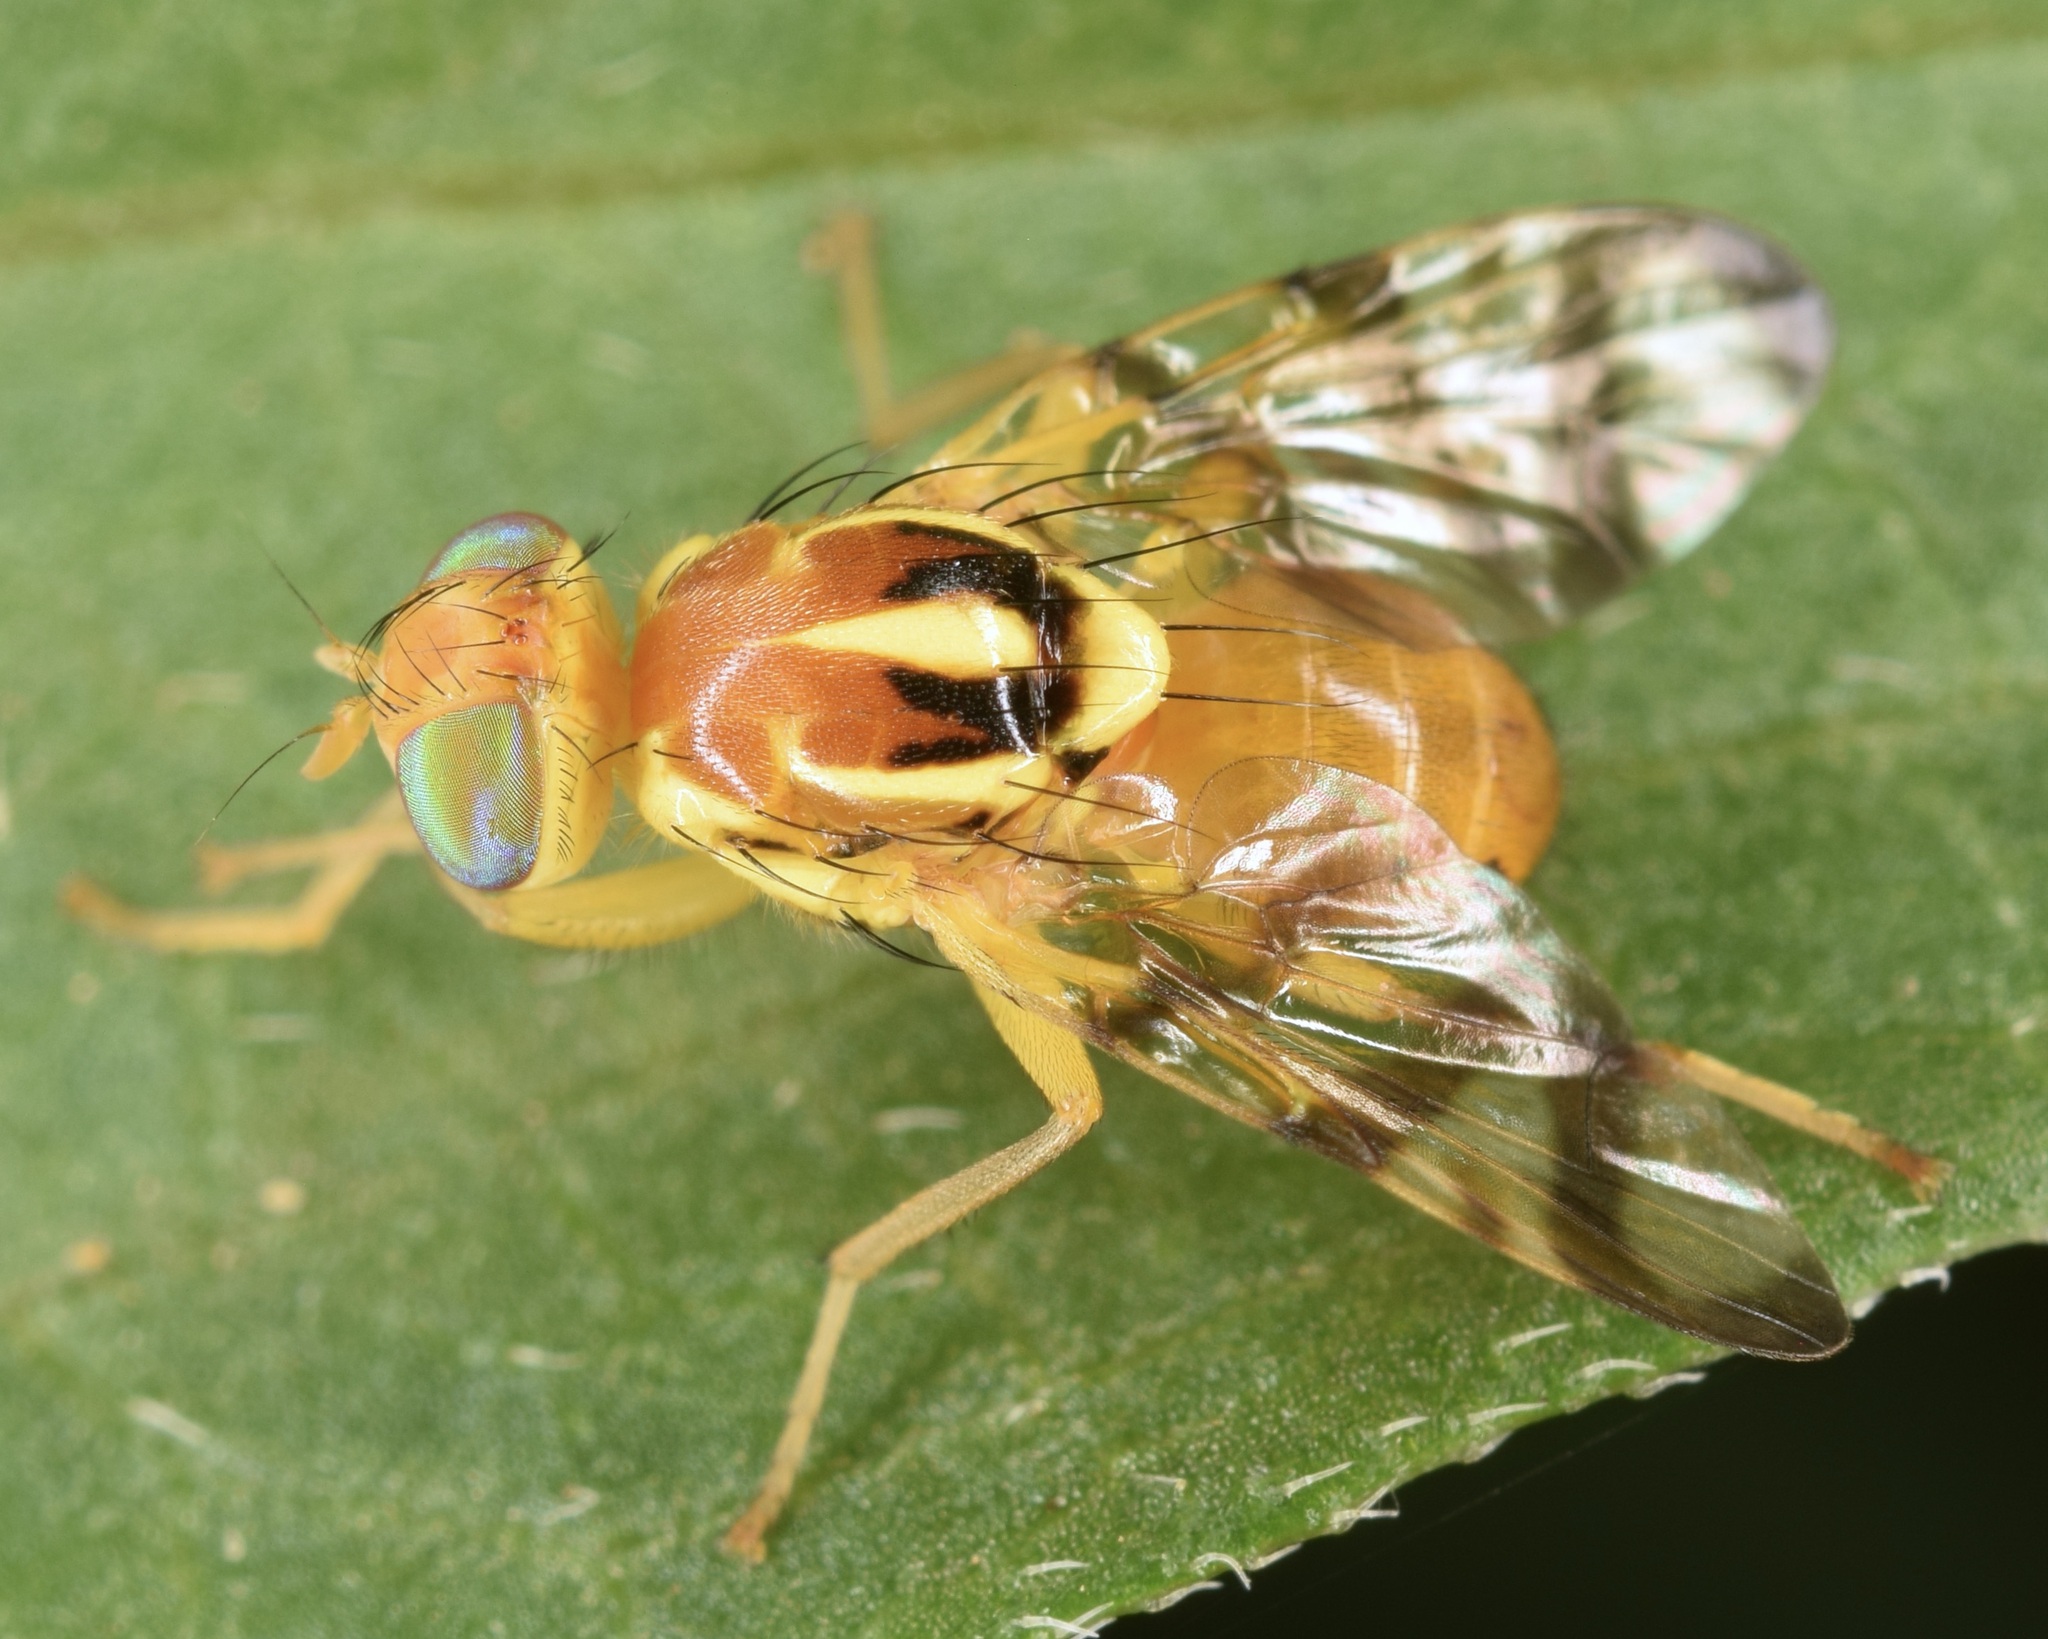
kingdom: Animalia
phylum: Arthropoda
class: Insecta
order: Diptera
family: Tephritidae
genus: Zonosemata
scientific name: Zonosemata electa
